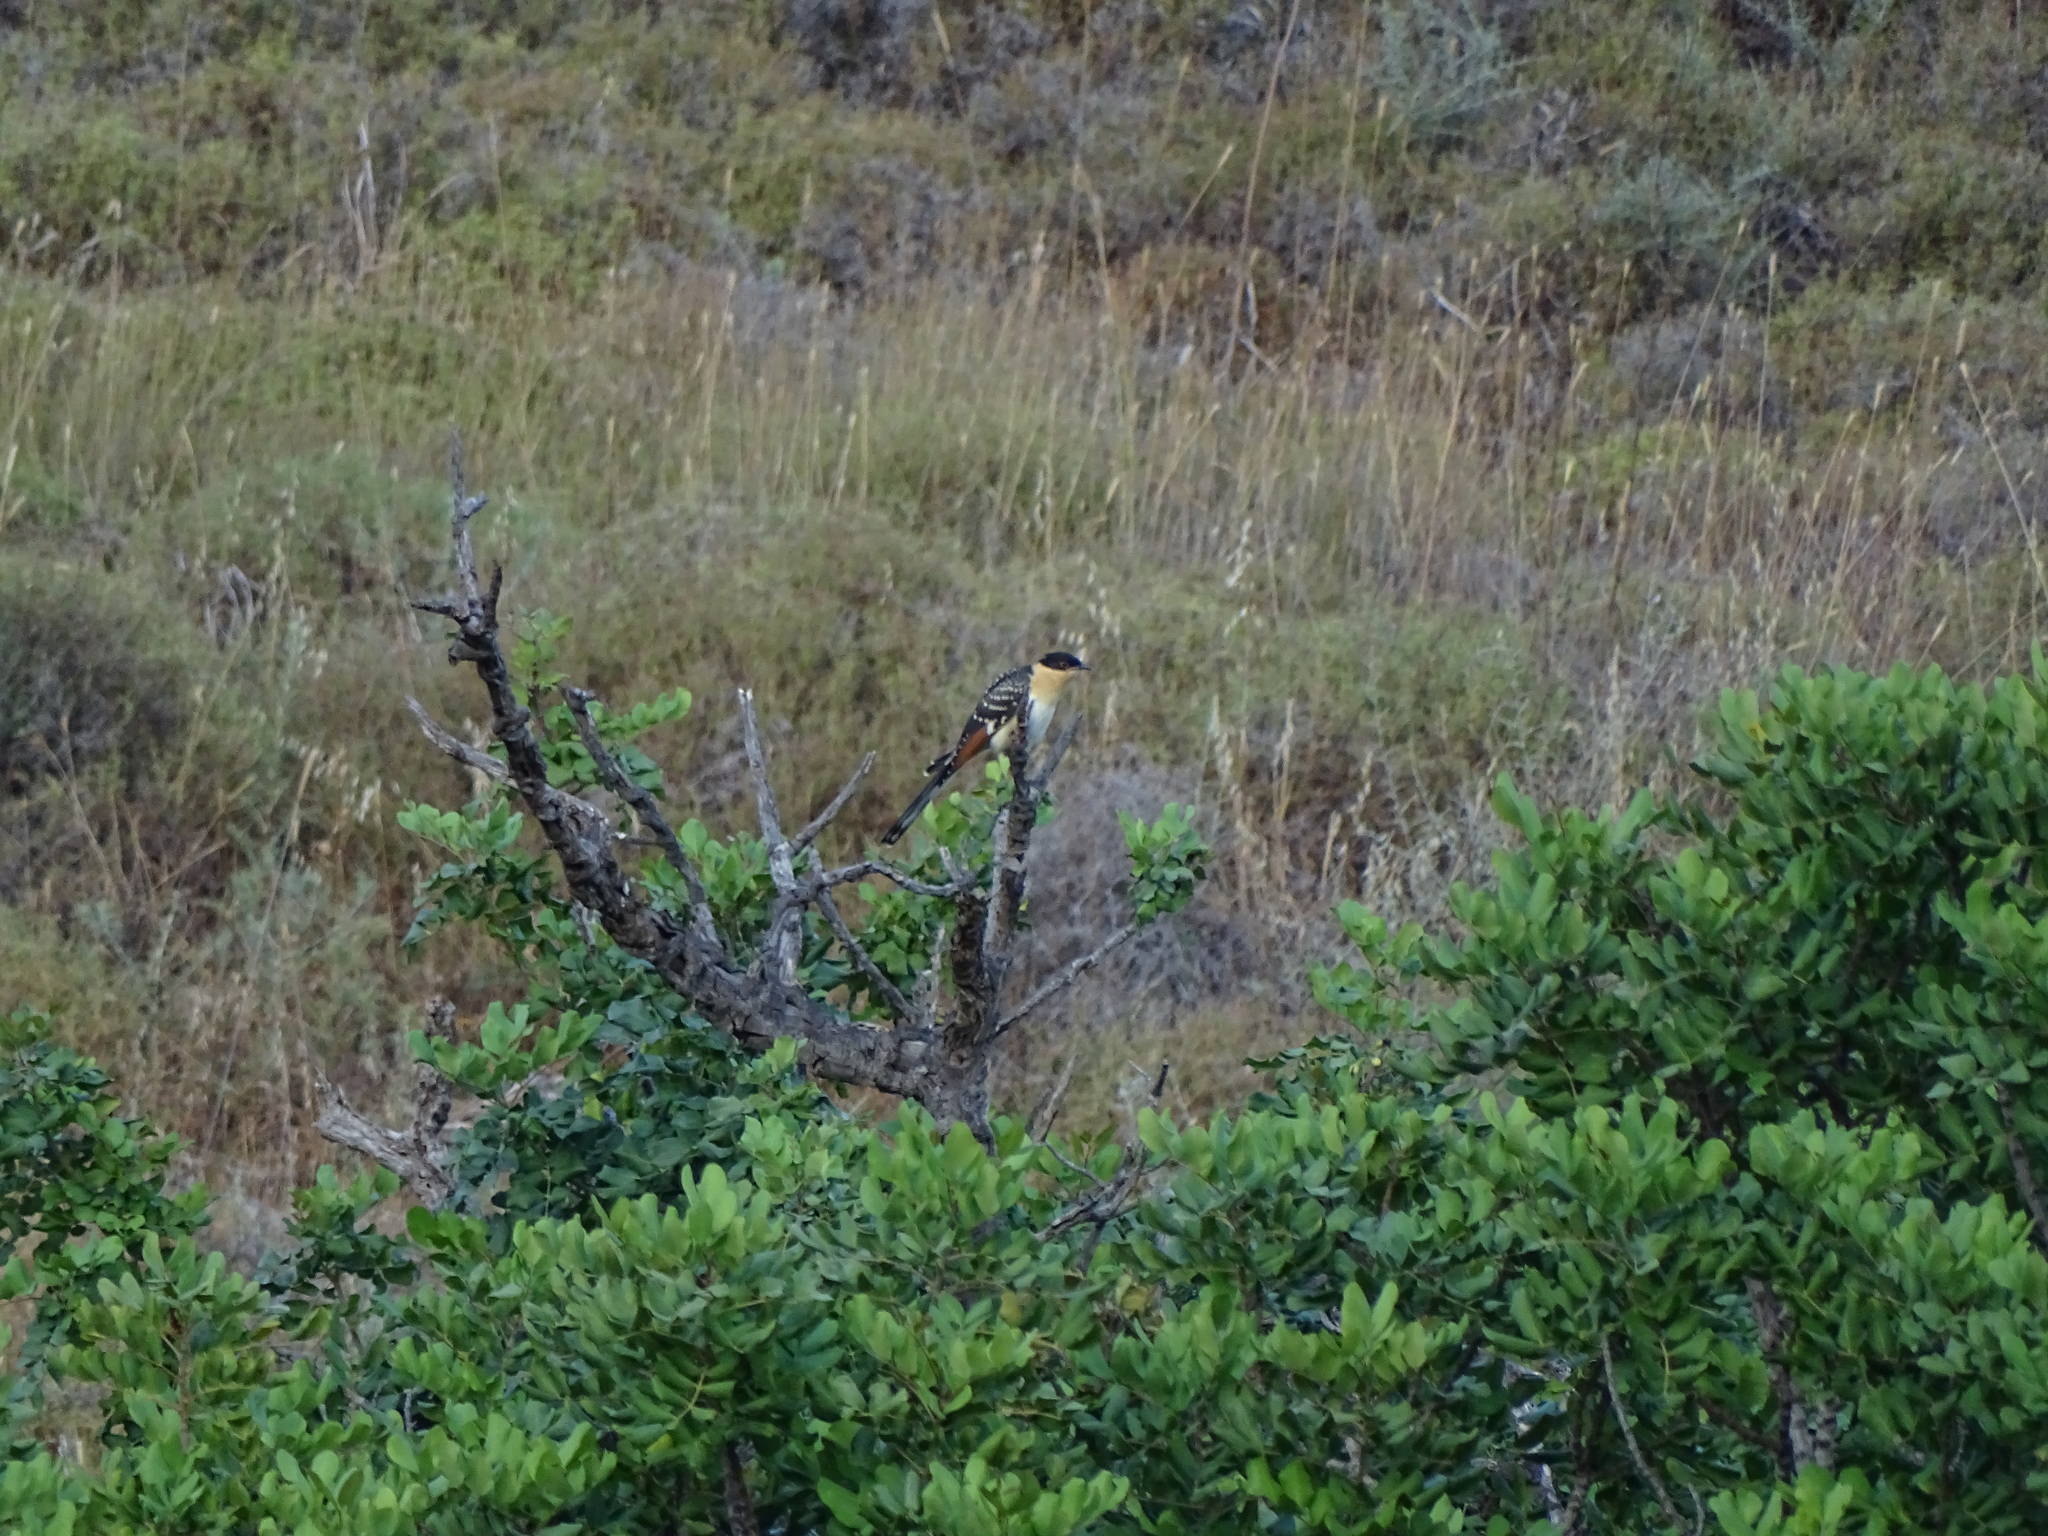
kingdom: Animalia
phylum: Chordata
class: Aves
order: Cuculiformes
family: Cuculidae
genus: Clamator
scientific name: Clamator glandarius
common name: Great spotted cuckoo
